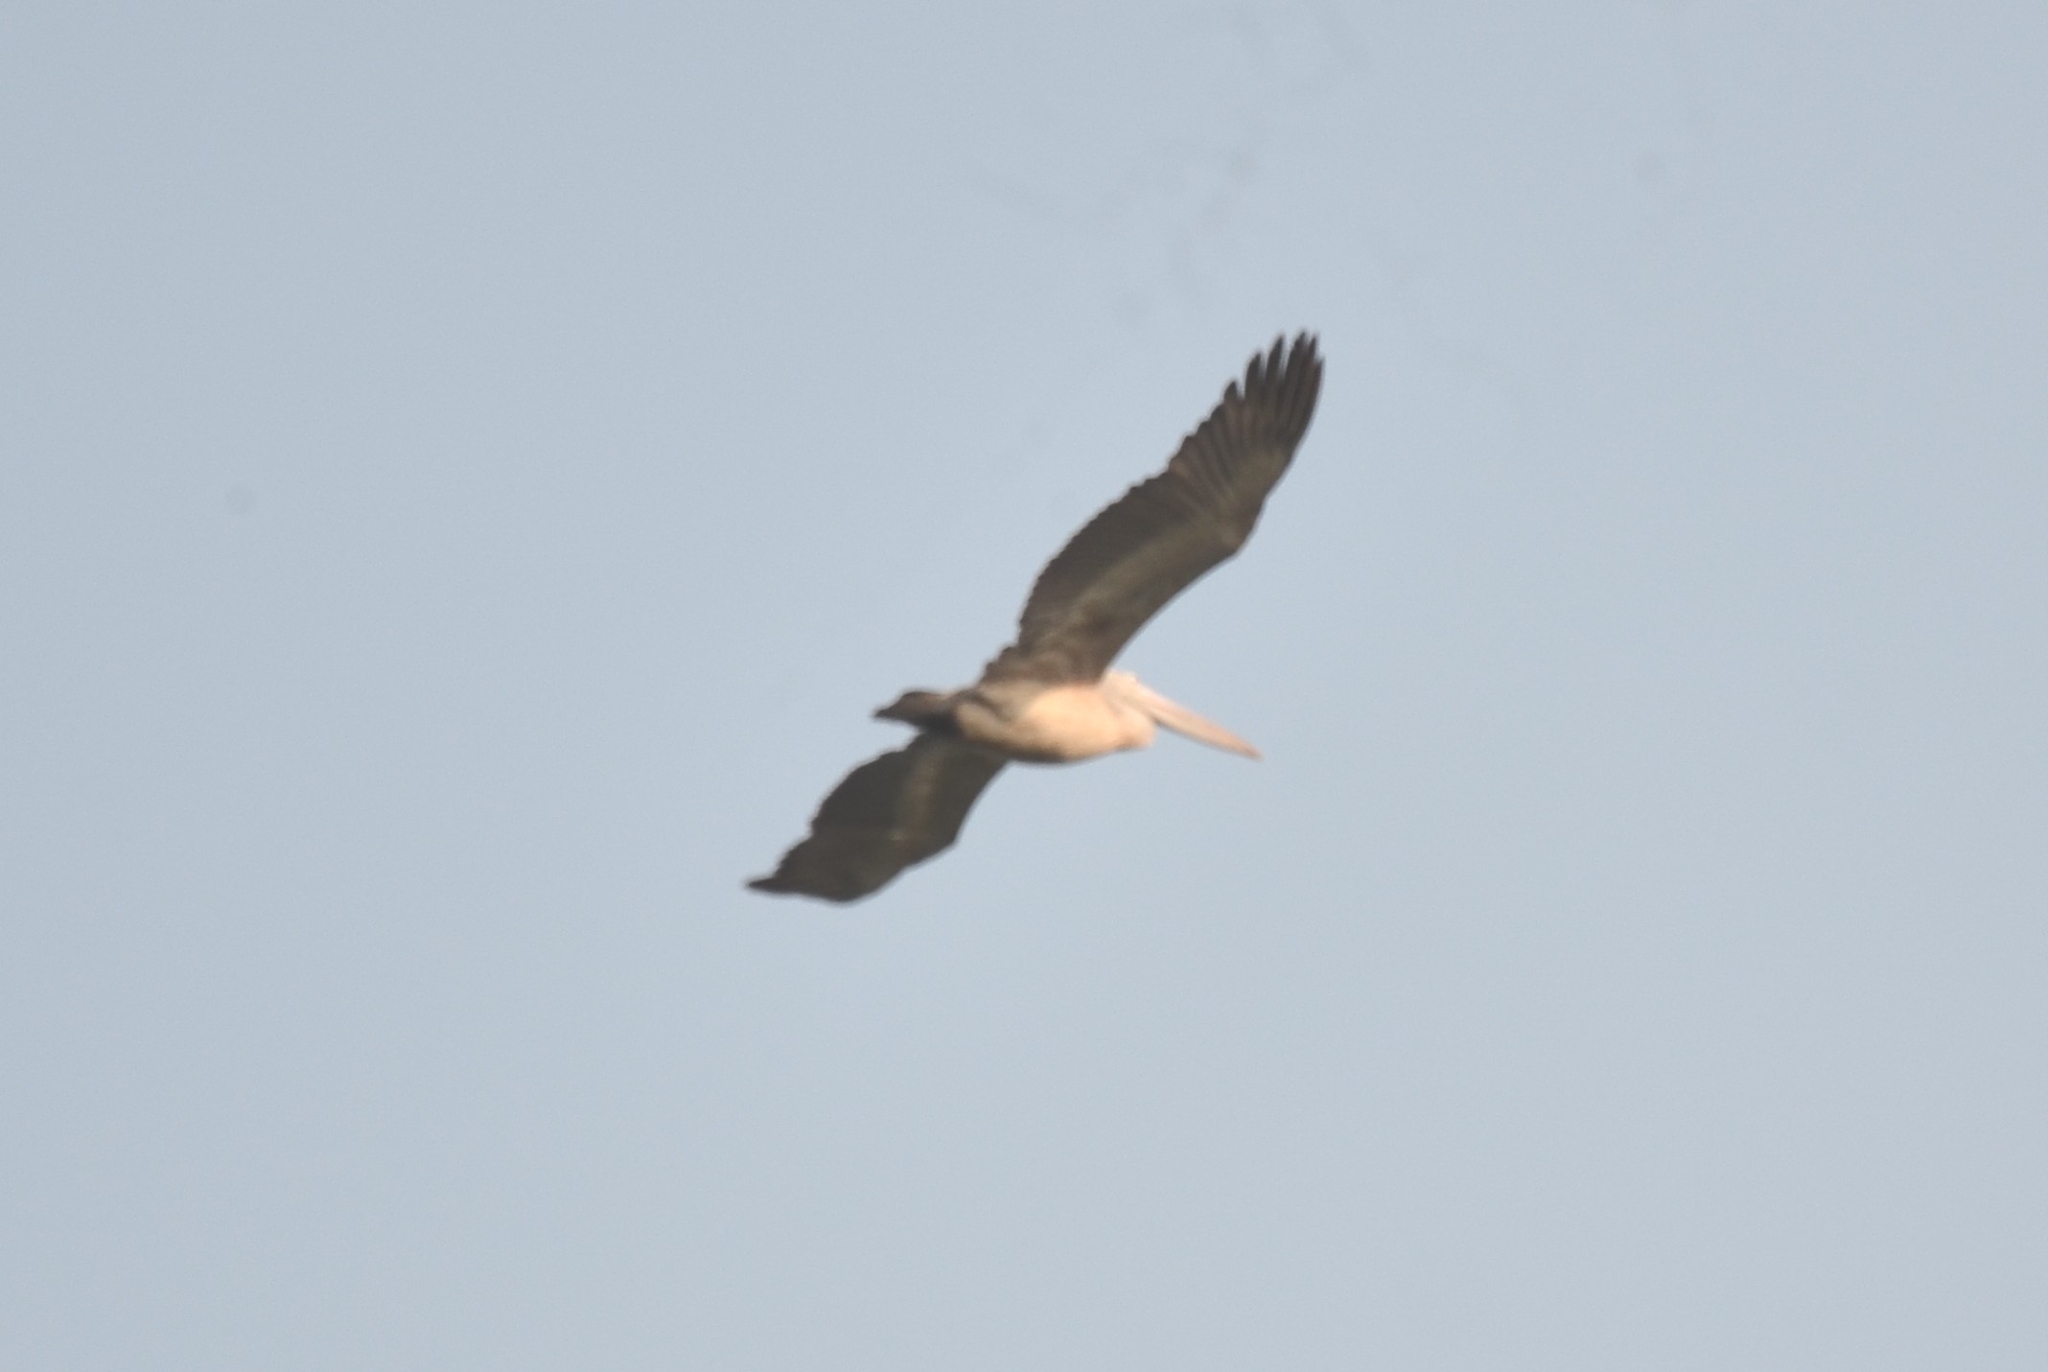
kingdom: Animalia
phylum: Chordata
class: Aves
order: Pelecaniformes
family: Pelecanidae
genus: Pelecanus
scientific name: Pelecanus philippensis
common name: Spot-billed pelican
